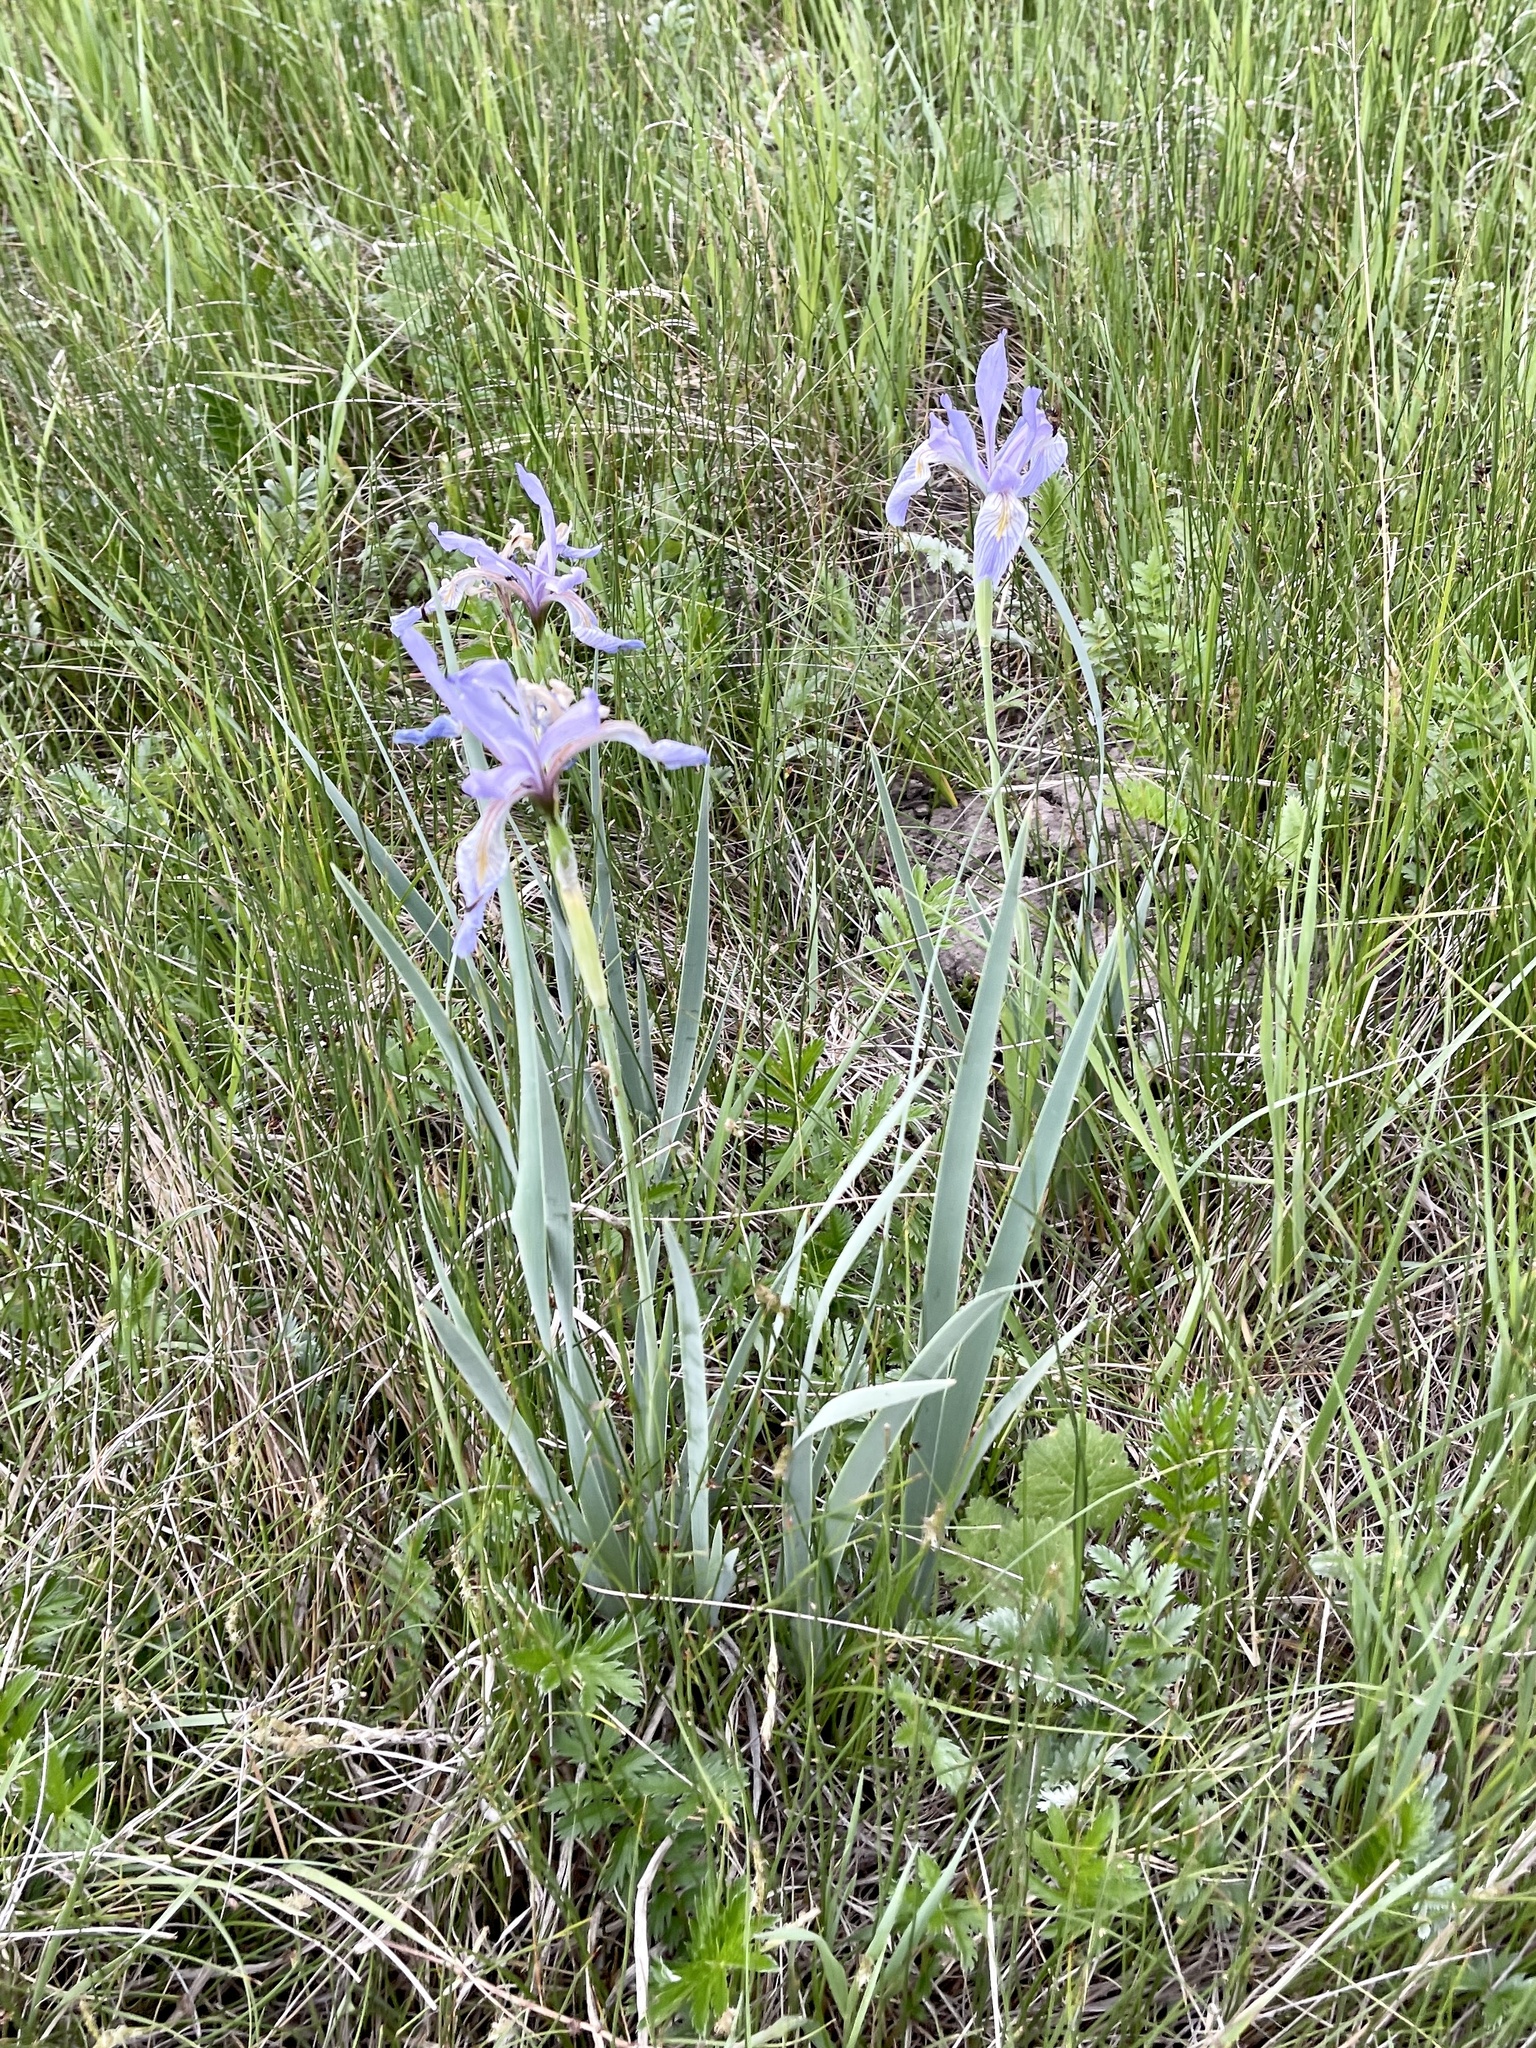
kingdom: Plantae
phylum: Tracheophyta
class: Liliopsida
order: Asparagales
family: Iridaceae
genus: Iris
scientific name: Iris missouriensis
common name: Rocky mountain iris
